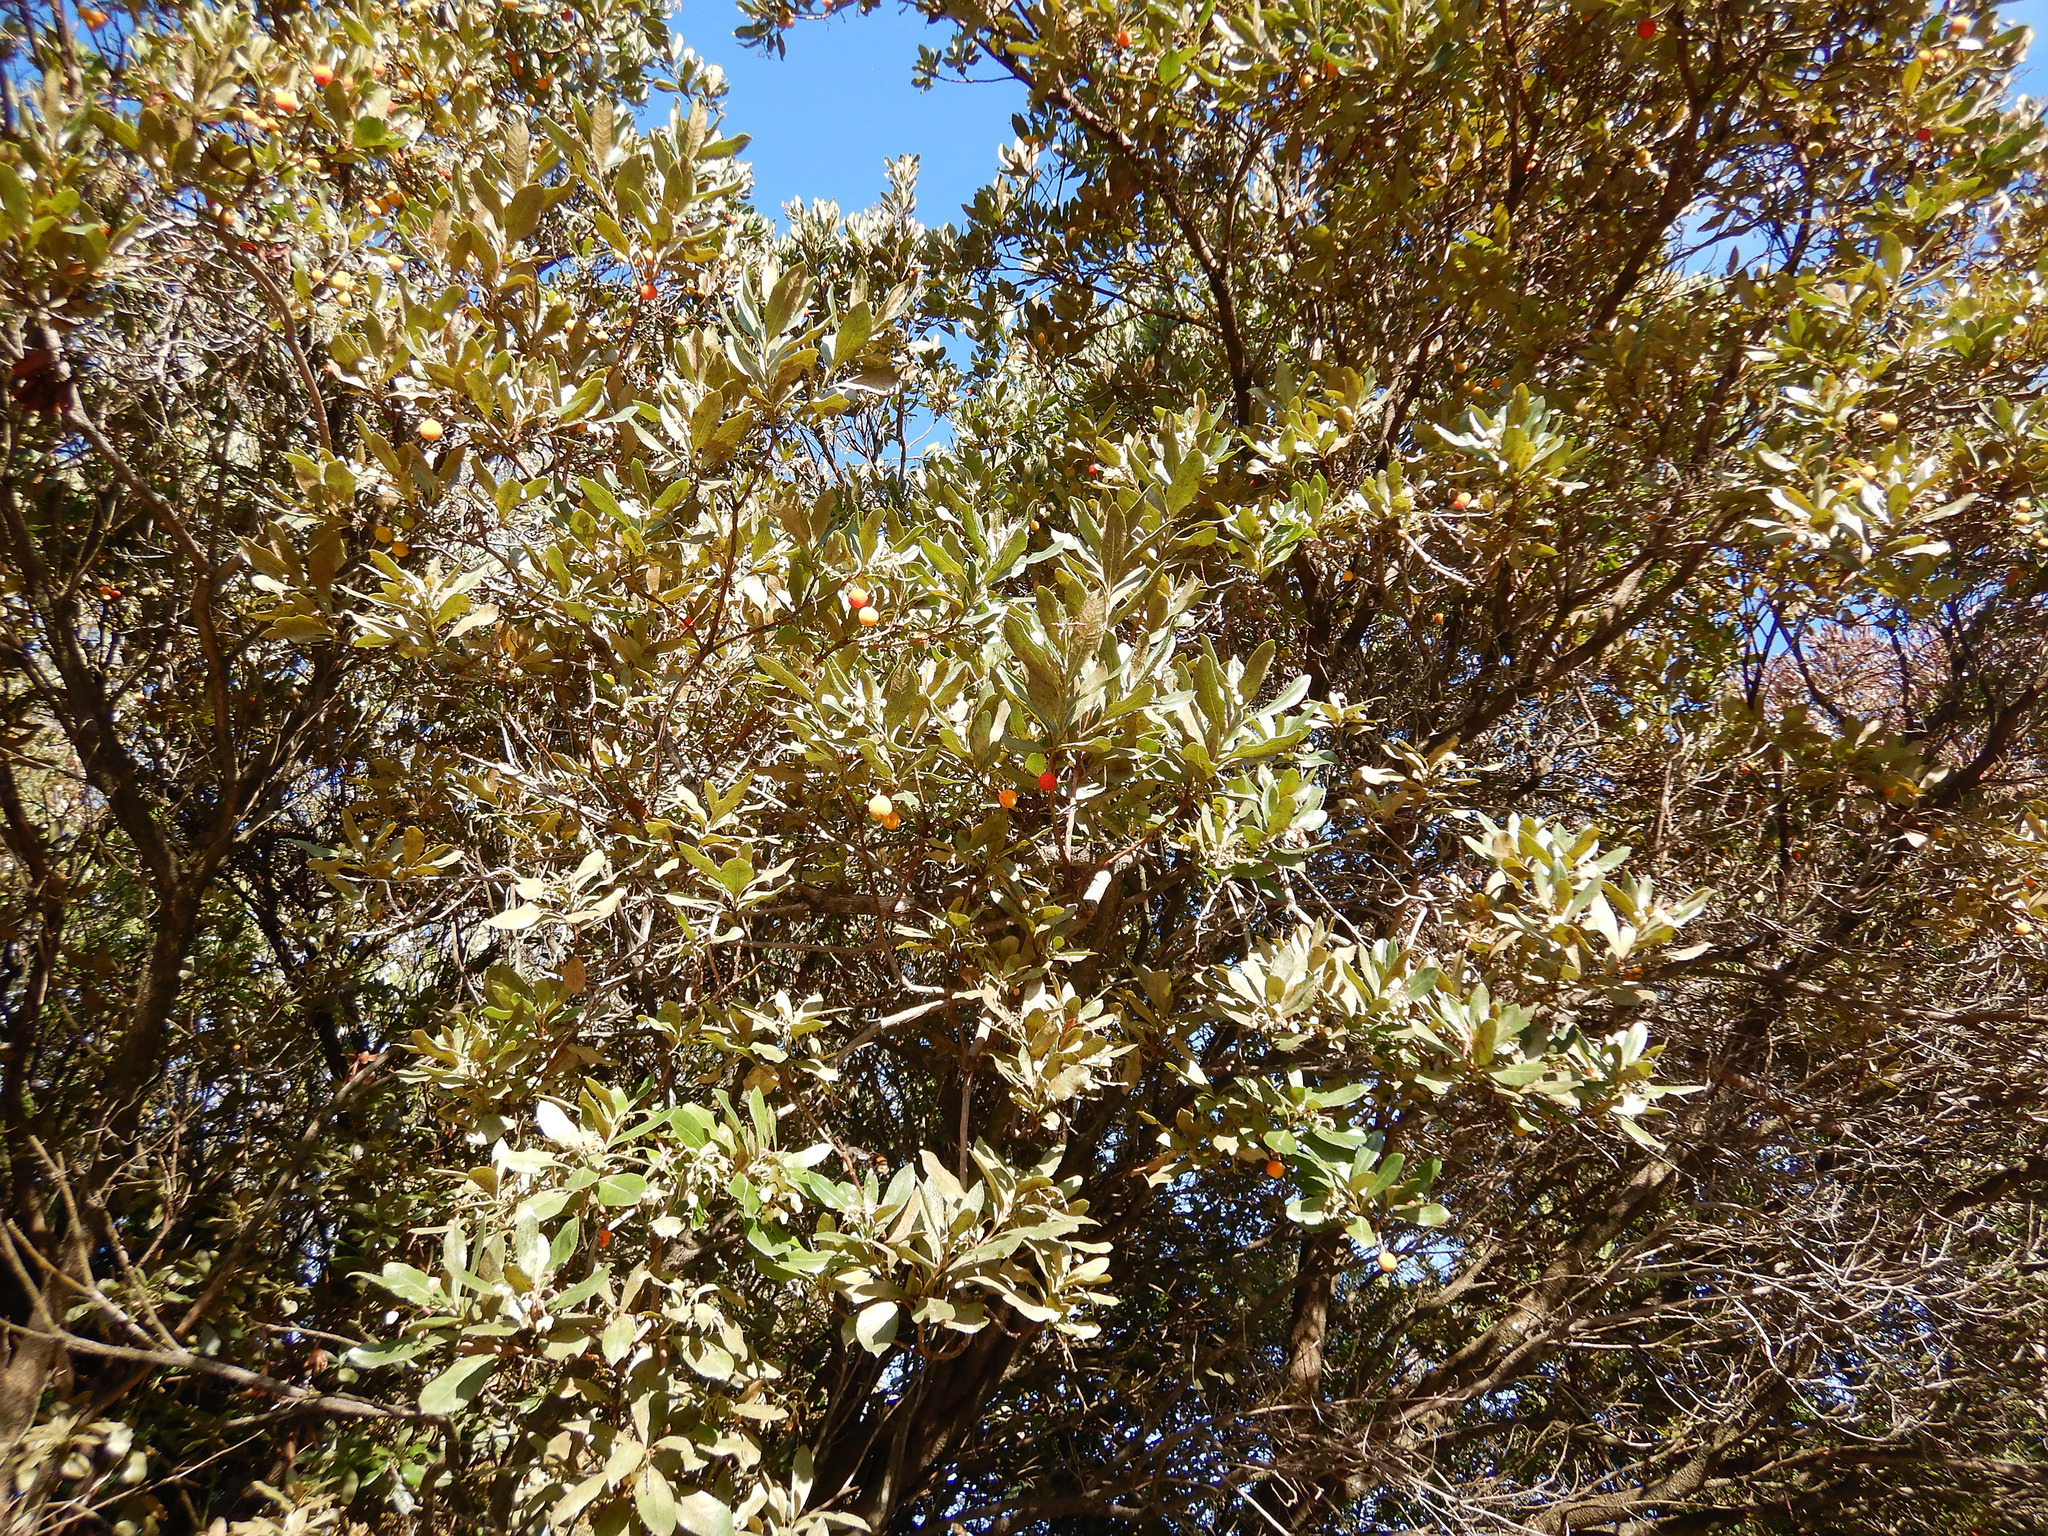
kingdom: Plantae
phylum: Tracheophyta
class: Magnoliopsida
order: Ericales
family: Ericaceae
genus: Arbutus
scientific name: Arbutus unedo
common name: Strawberry-tree
